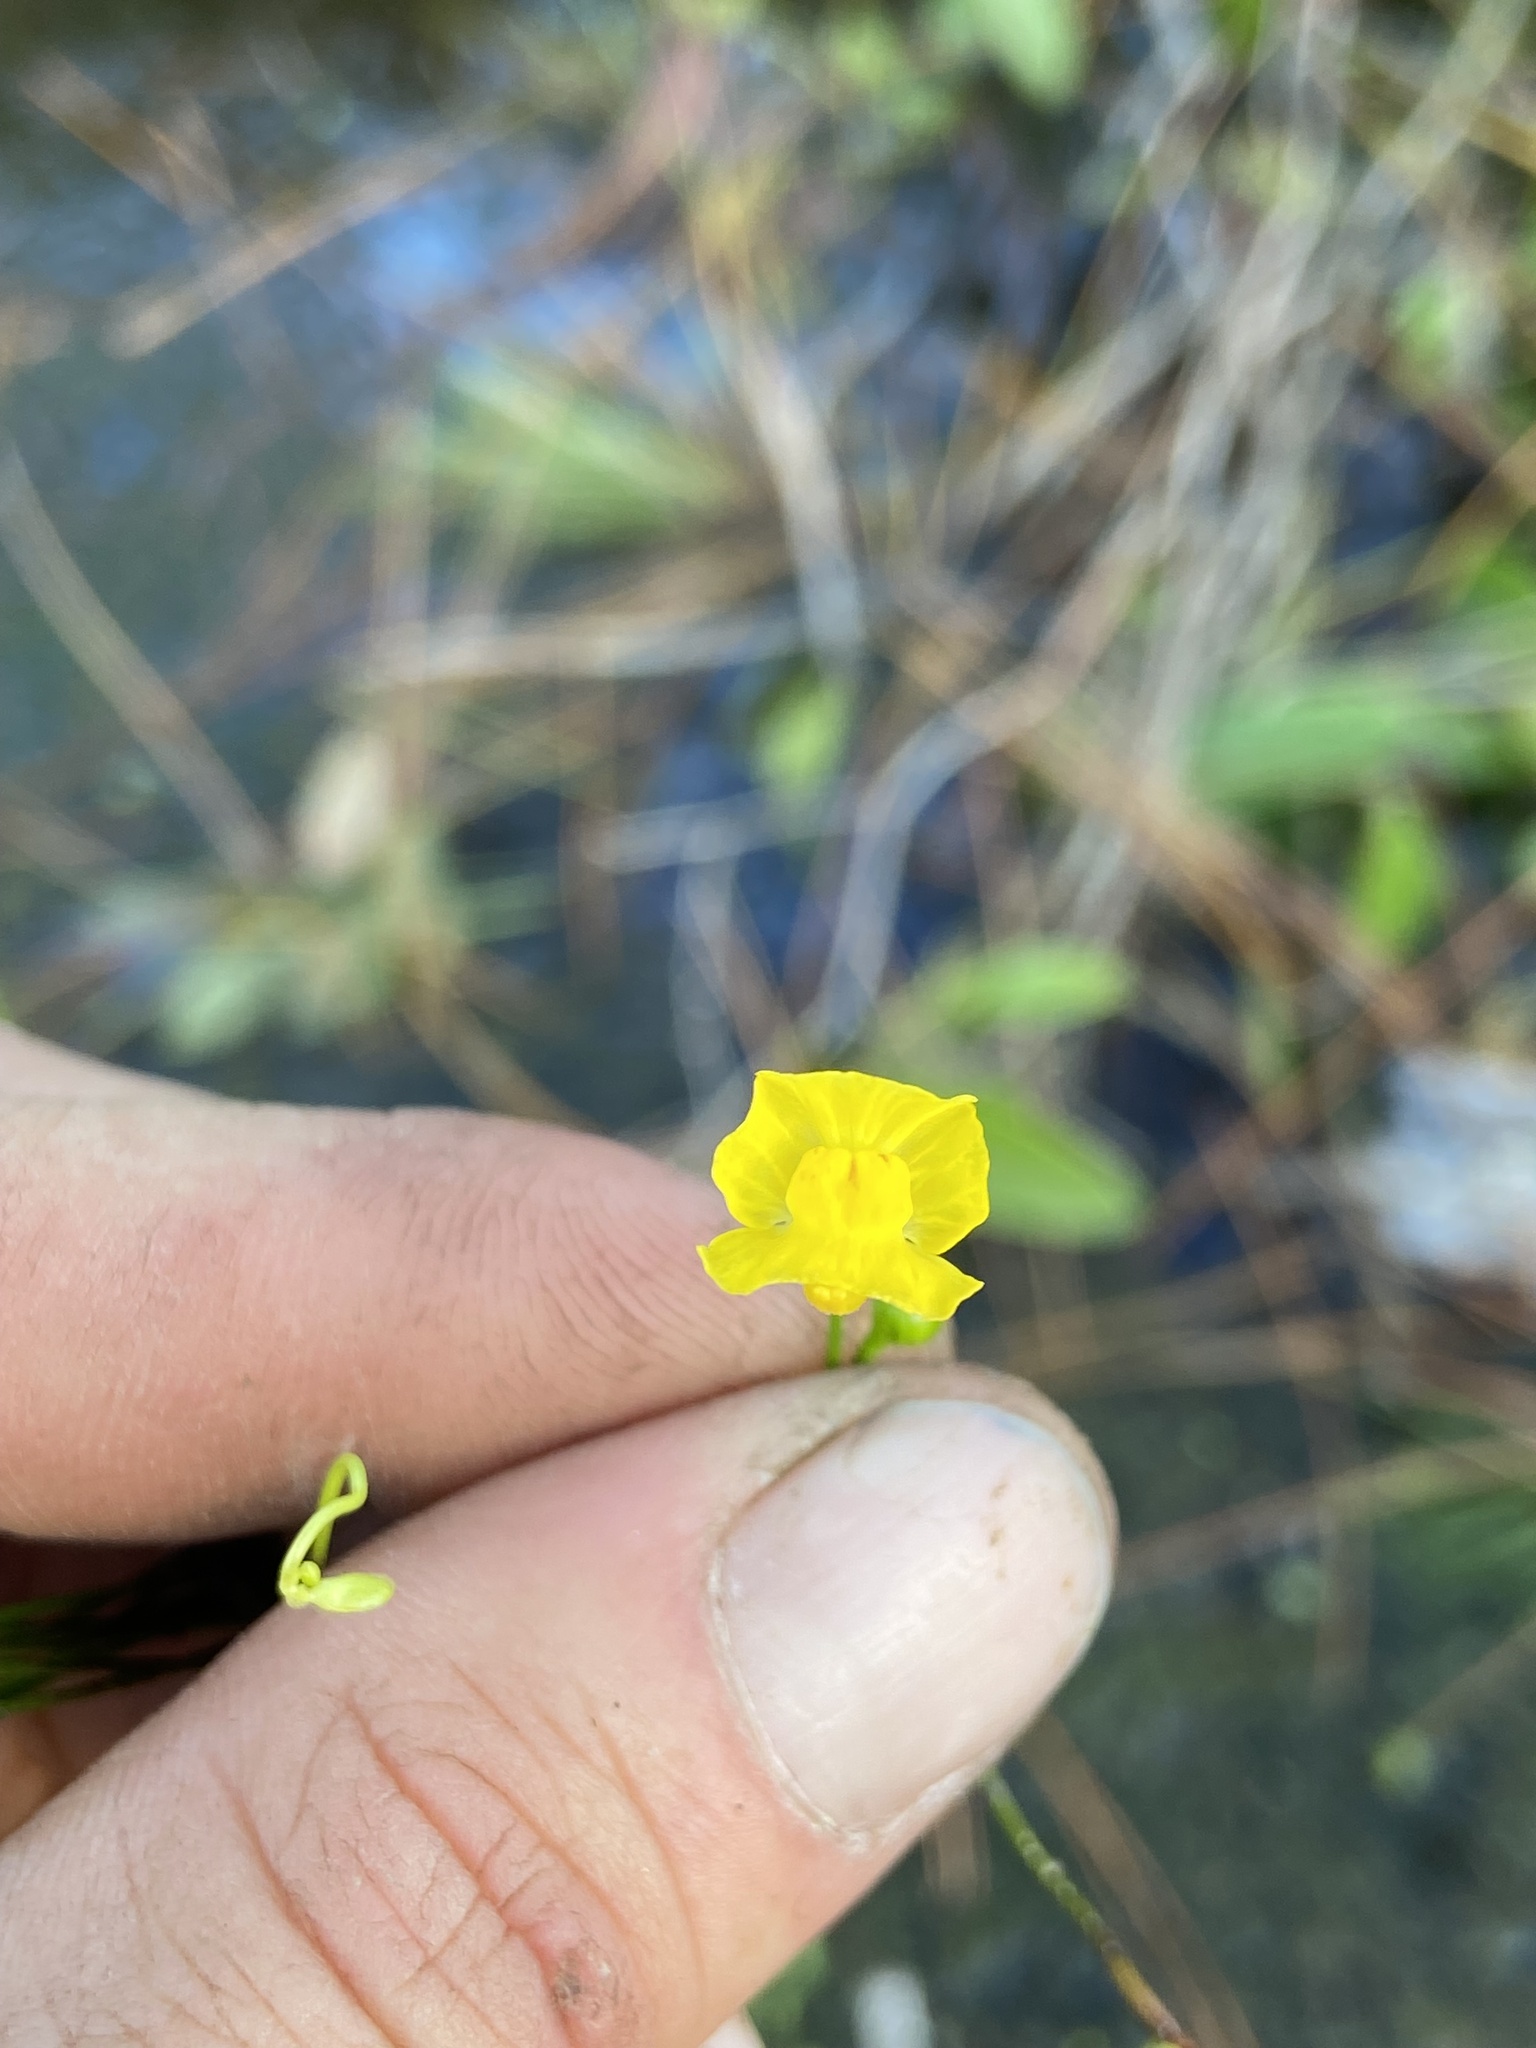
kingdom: Plantae
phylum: Tracheophyta
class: Magnoliopsida
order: Lamiales
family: Lentibulariaceae
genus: Utricularia
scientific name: Utricularia gibba
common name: Humped bladderwort
